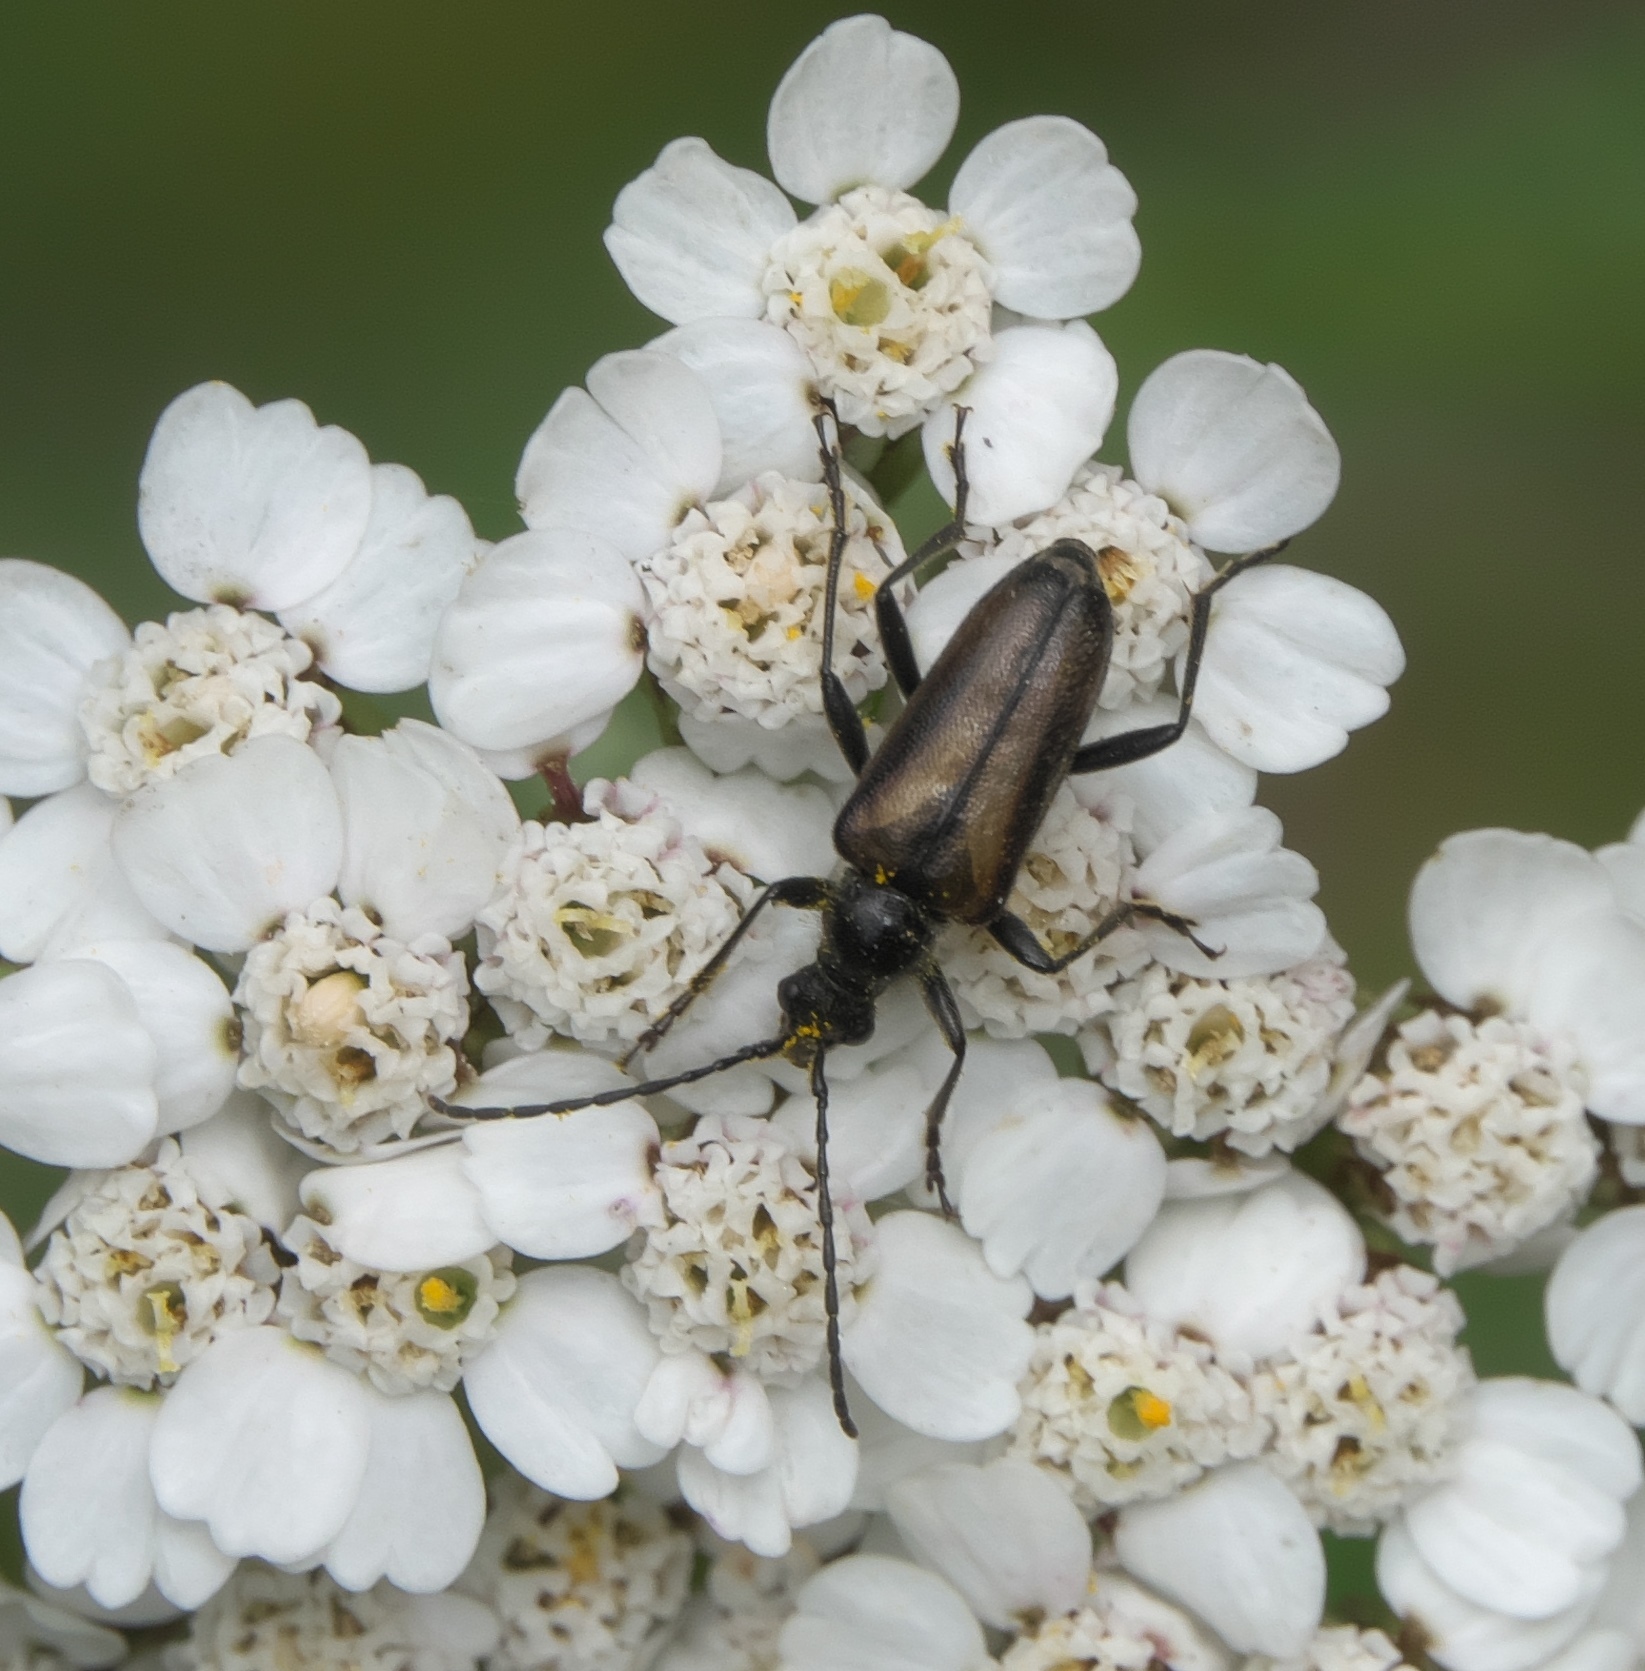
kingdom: Animalia
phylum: Arthropoda
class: Insecta
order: Coleoptera
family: Cerambycidae
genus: Gnathacmaeops
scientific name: Gnathacmaeops pratensis
